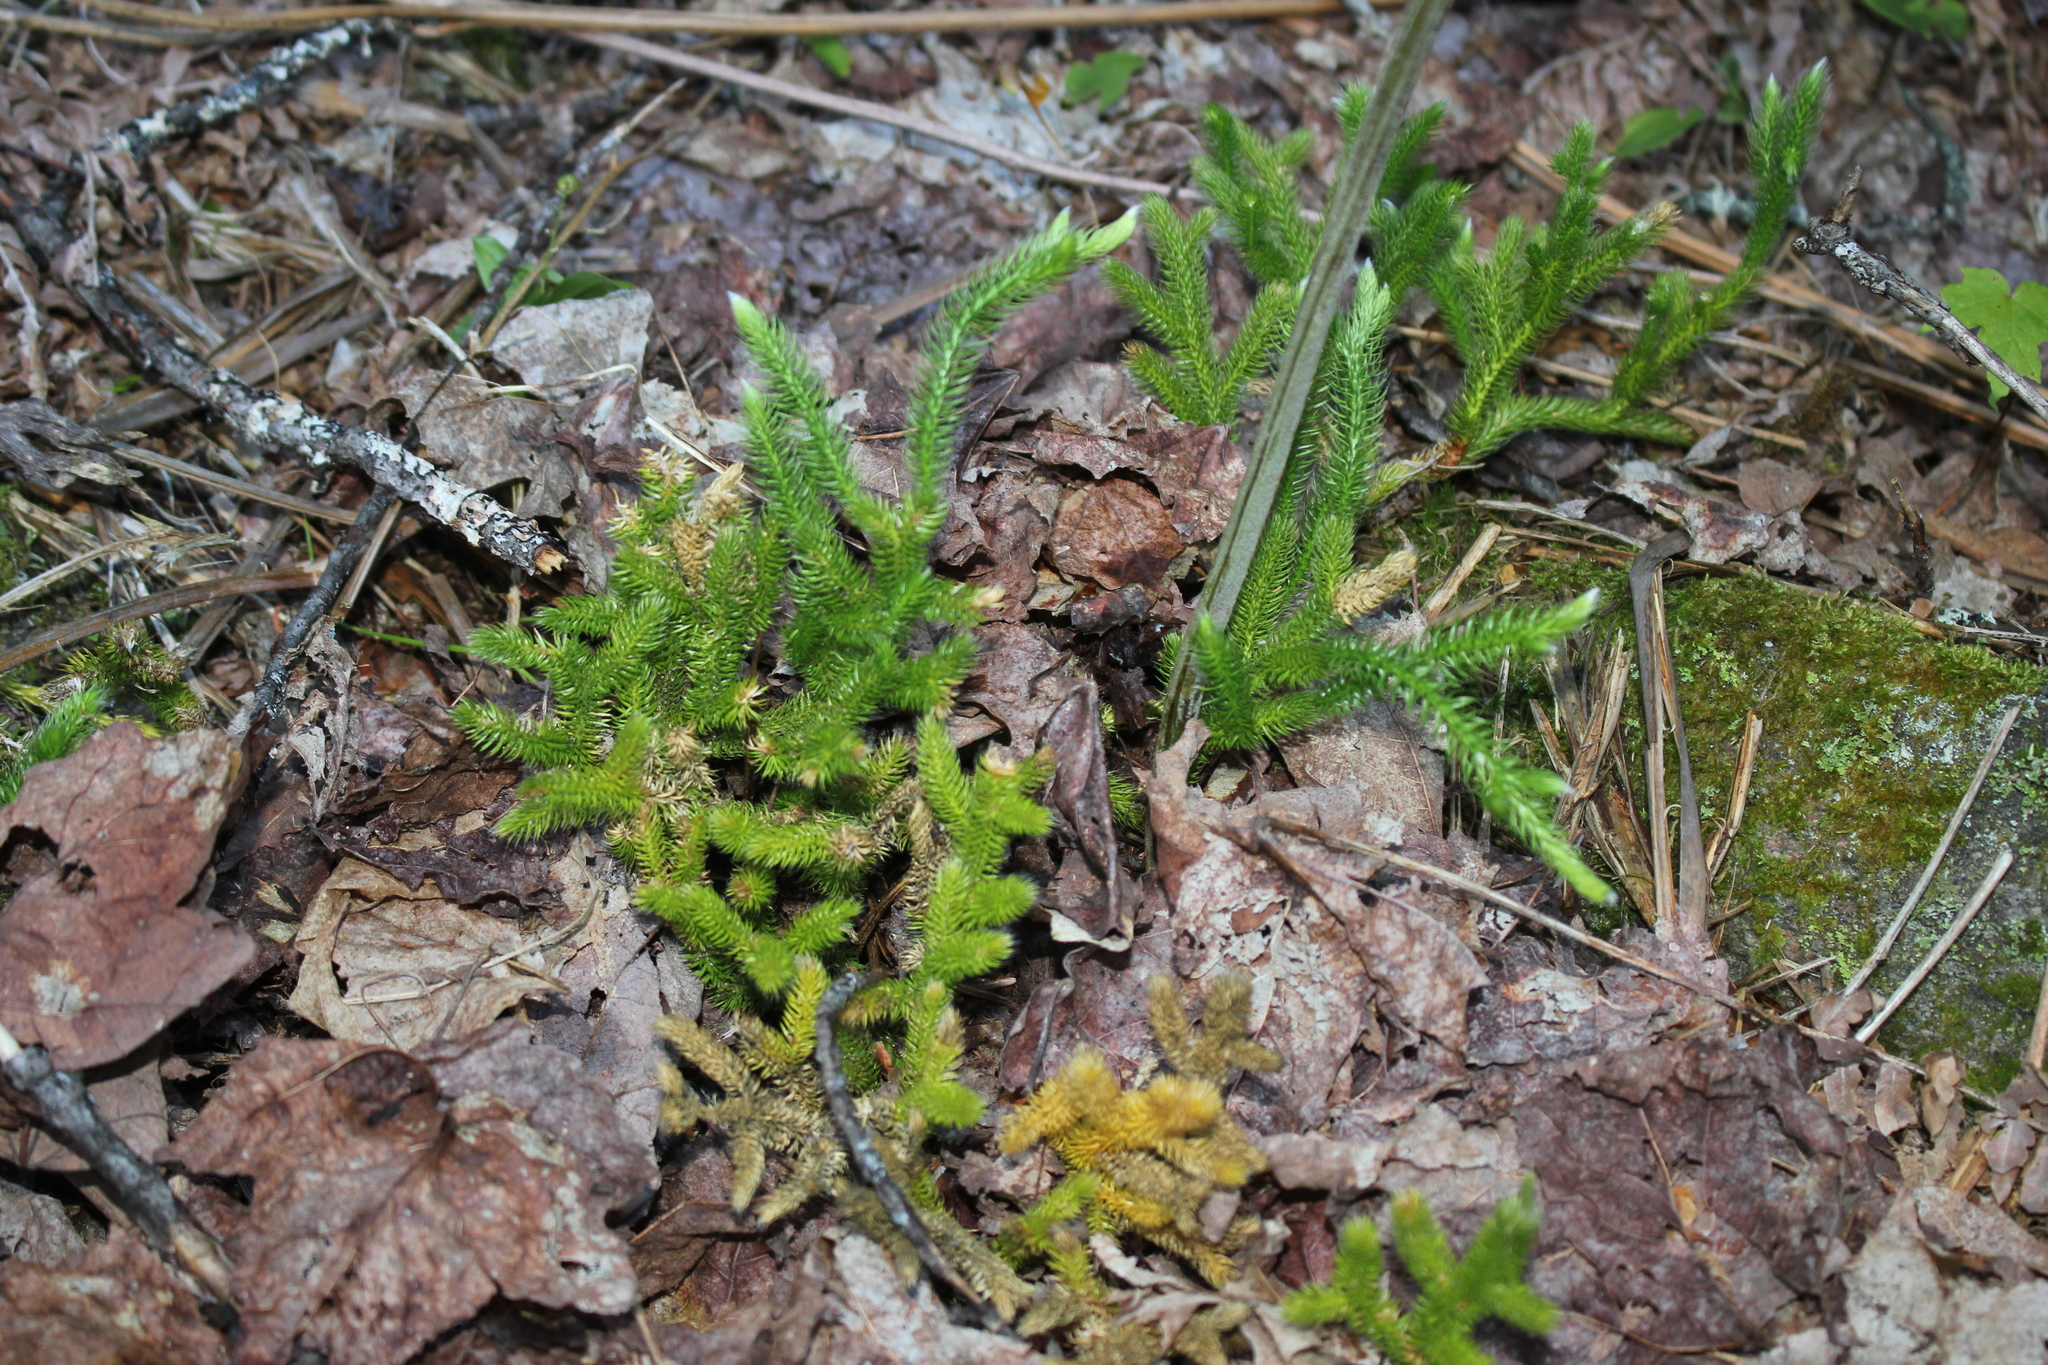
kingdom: Plantae
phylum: Tracheophyta
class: Lycopodiopsida
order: Lycopodiales
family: Lycopodiaceae
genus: Lycopodium
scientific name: Lycopodium clavatum
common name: Stag's-horn clubmoss
